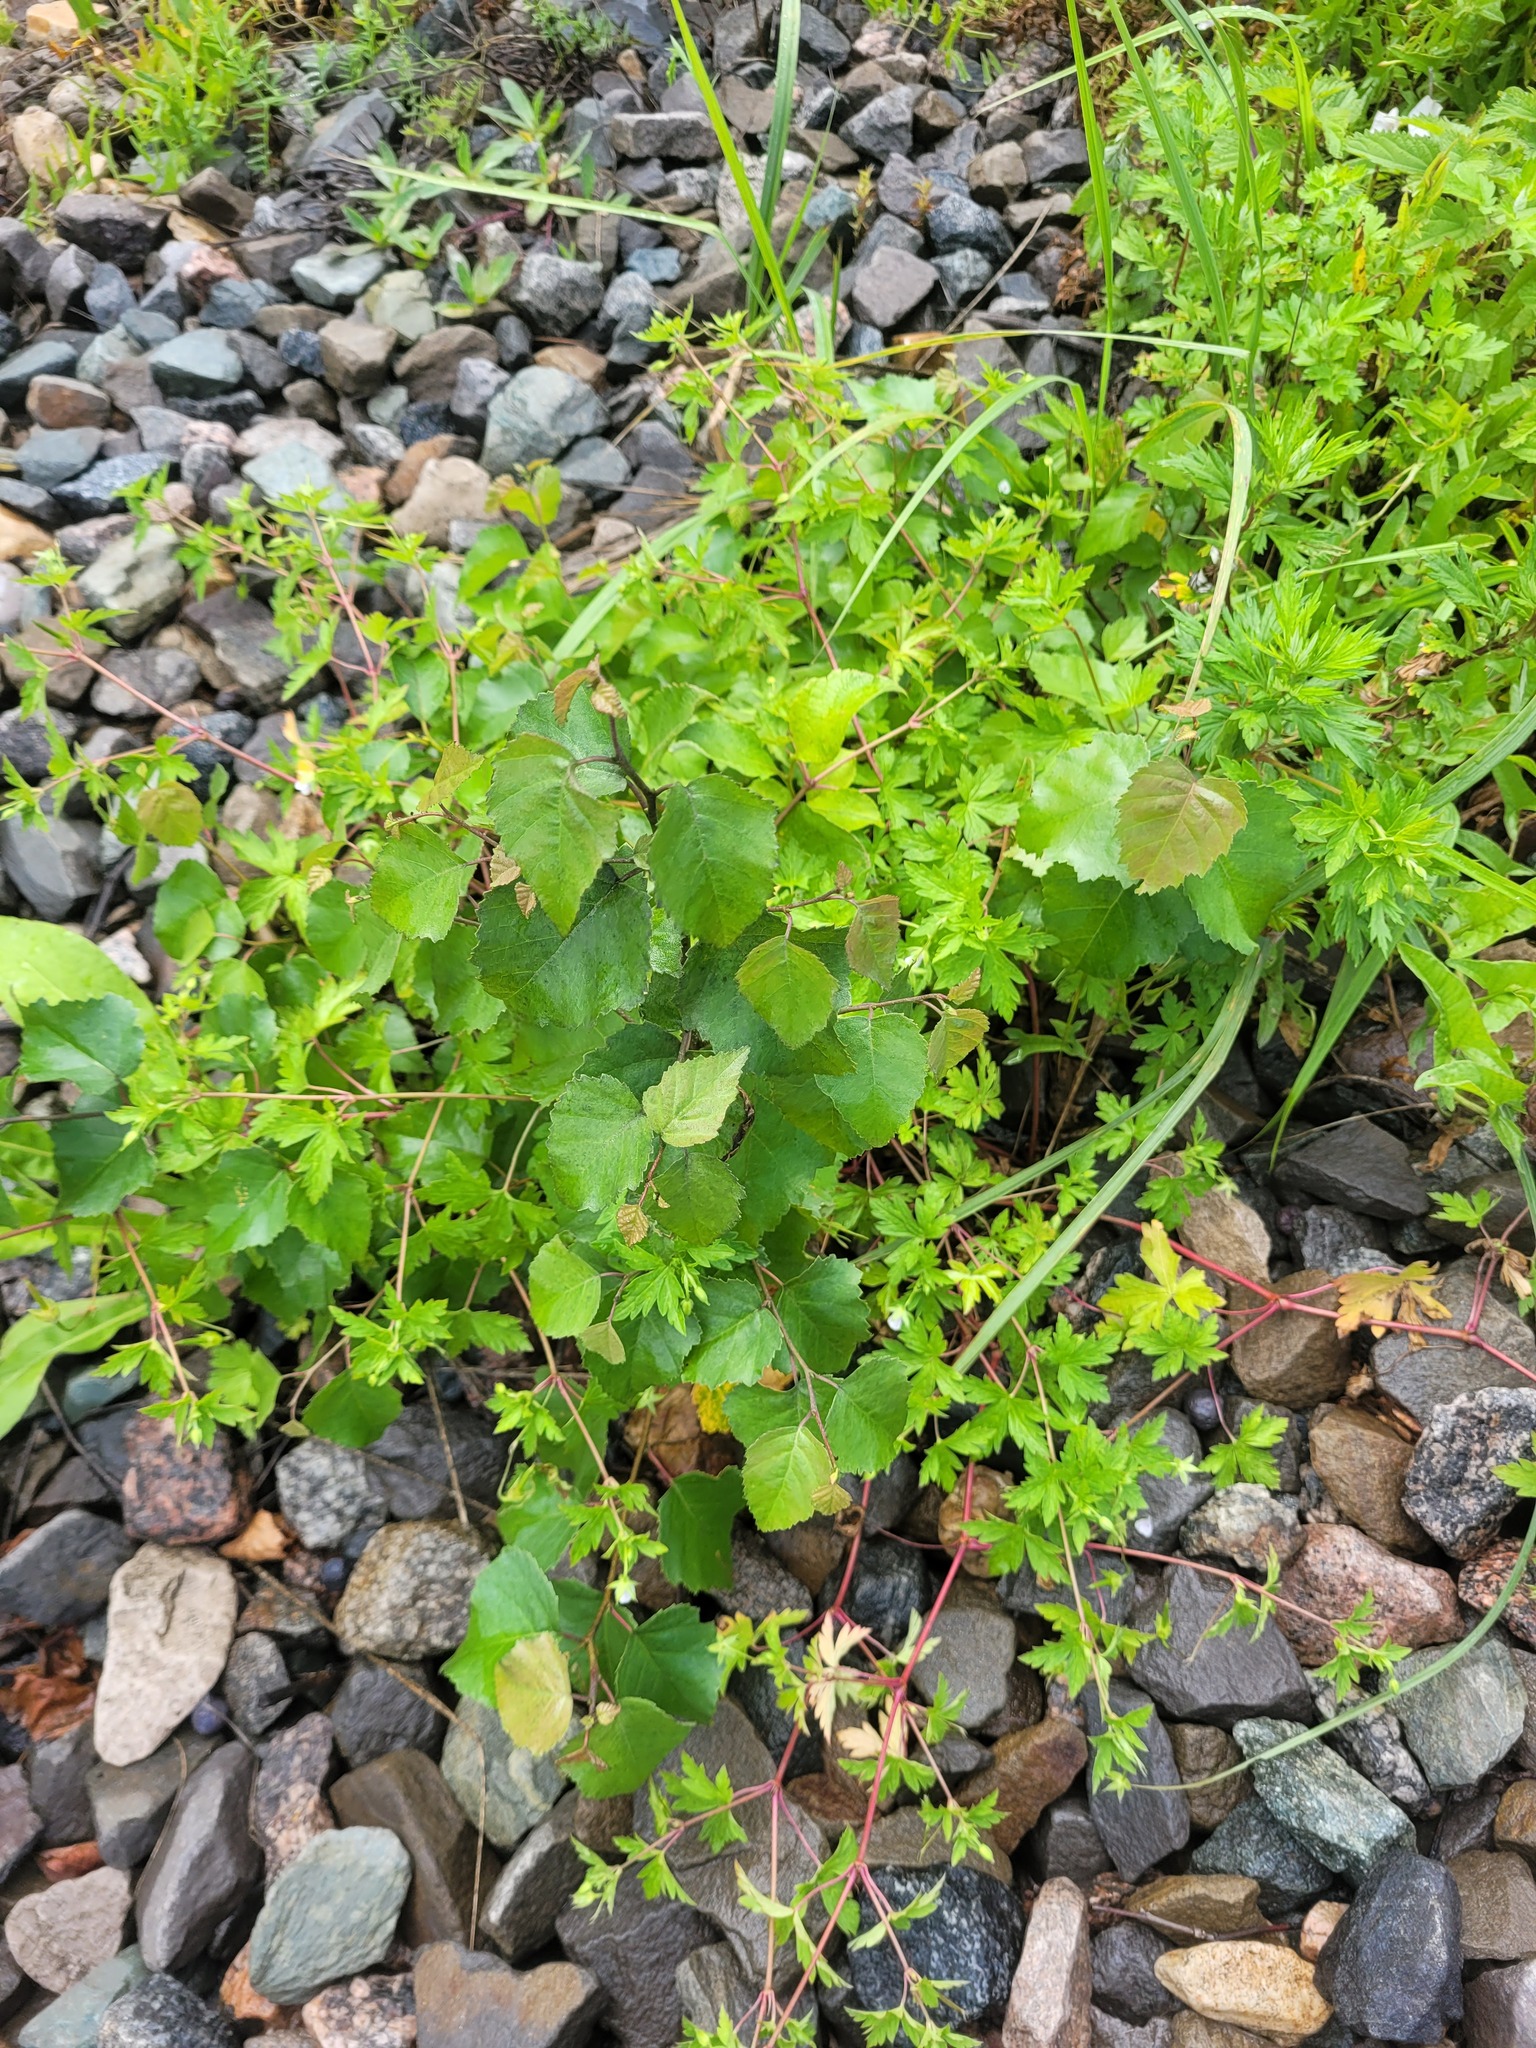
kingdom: Plantae
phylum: Tracheophyta
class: Magnoliopsida
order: Fagales
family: Betulaceae
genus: Betula
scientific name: Betula pendula
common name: Silver birch
